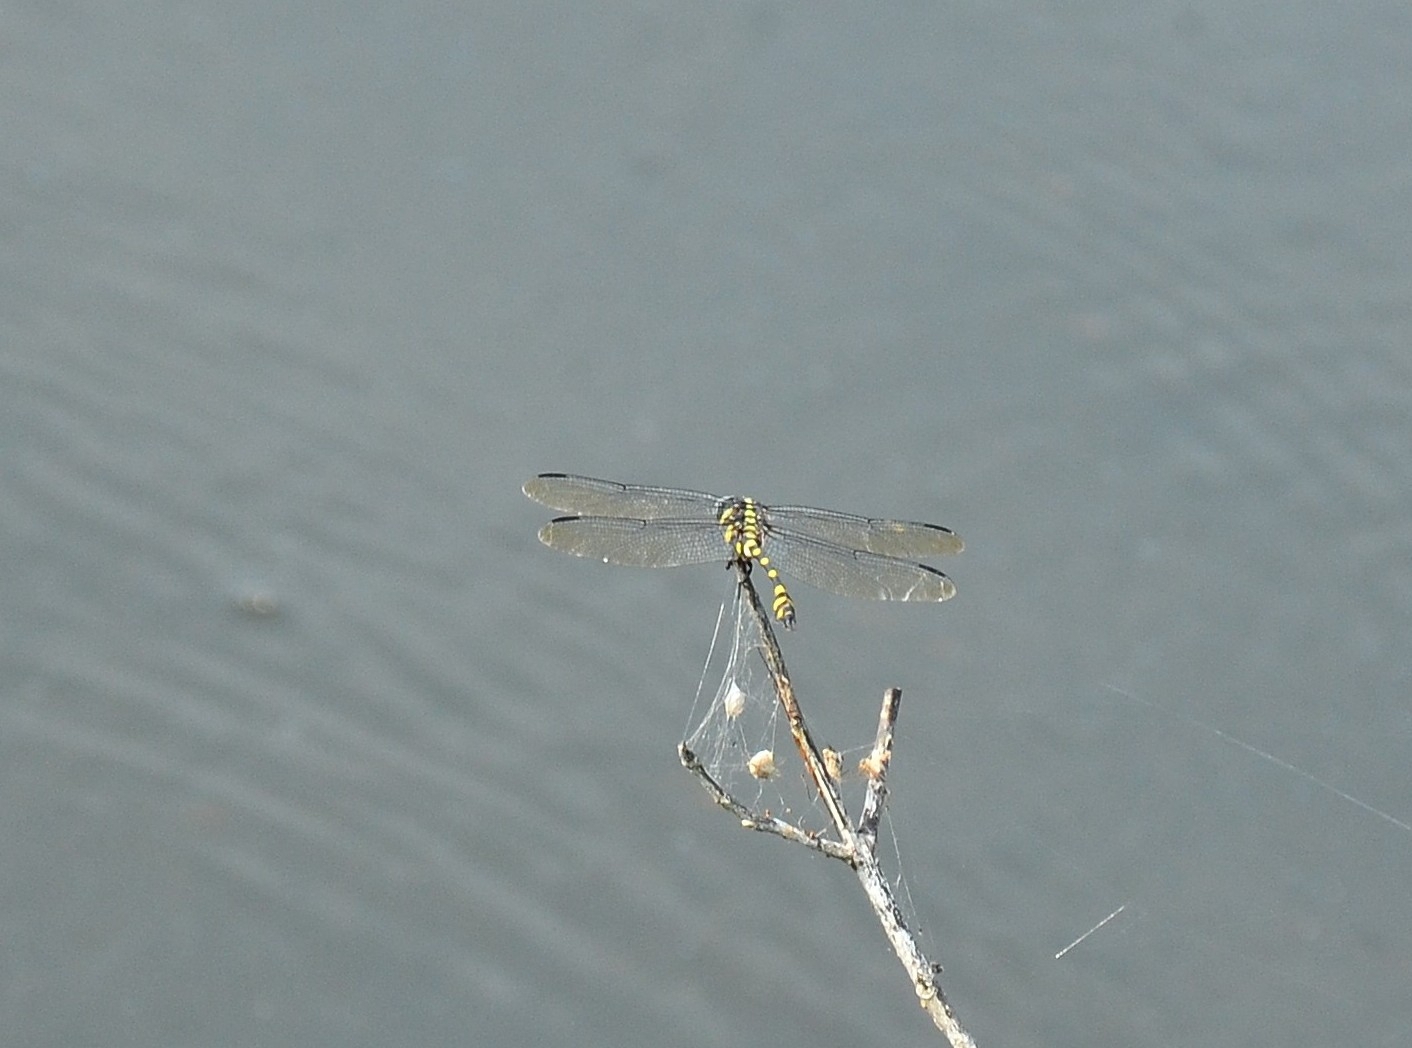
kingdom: Animalia
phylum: Arthropoda
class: Insecta
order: Odonata
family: Gomphidae
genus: Ictinogomphus
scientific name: Ictinogomphus rapax
